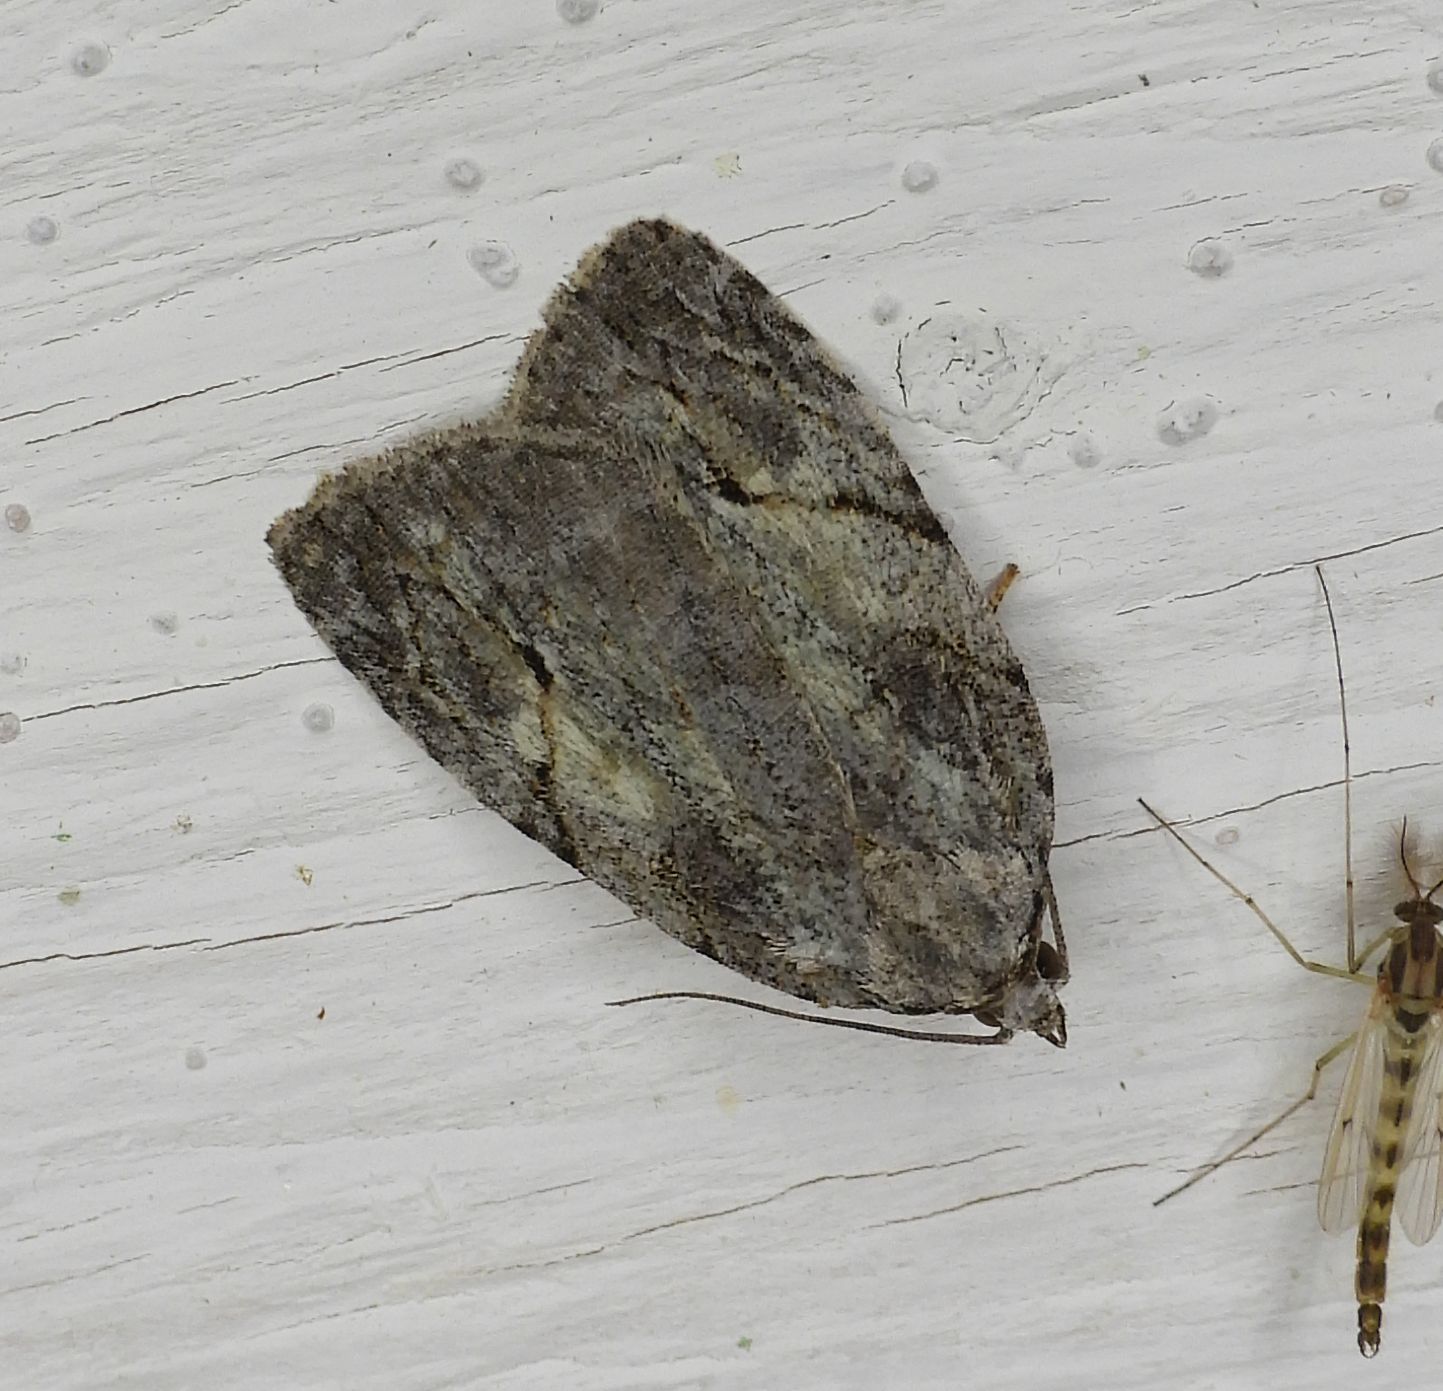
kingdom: Animalia
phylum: Arthropoda
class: Insecta
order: Lepidoptera
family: Noctuidae
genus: Balsa
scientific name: Balsa labecula
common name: White-blotched balsa moth
